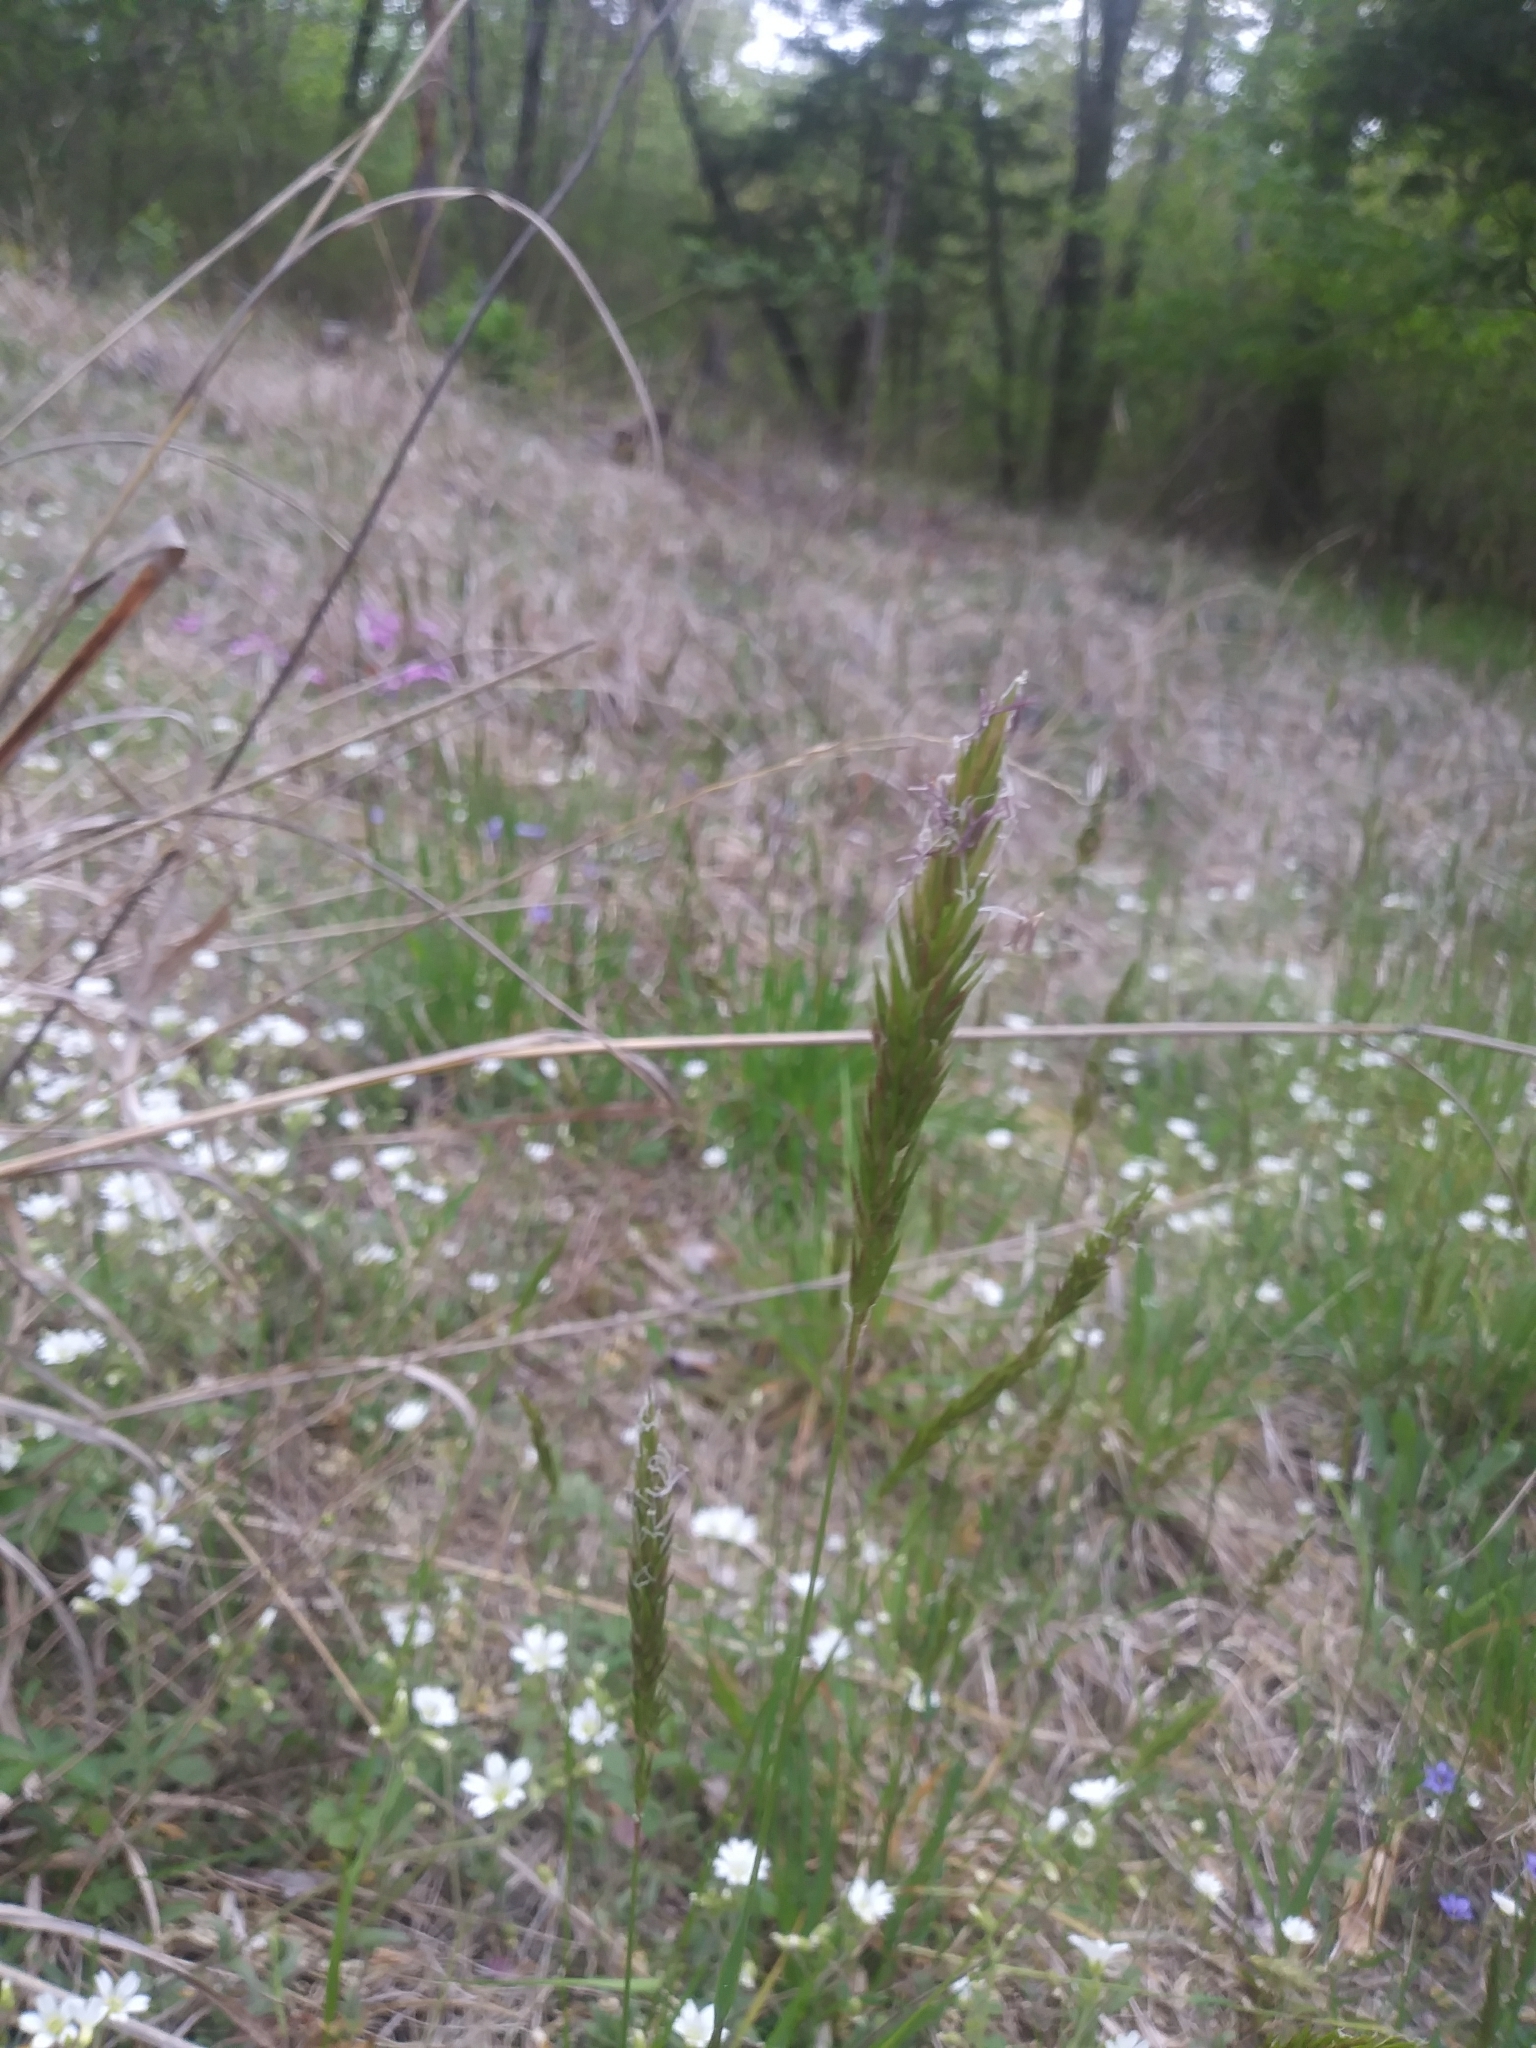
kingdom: Plantae
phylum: Tracheophyta
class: Liliopsida
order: Poales
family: Poaceae
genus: Anthoxanthum
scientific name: Anthoxanthum odoratum
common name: Sweet vernalgrass
